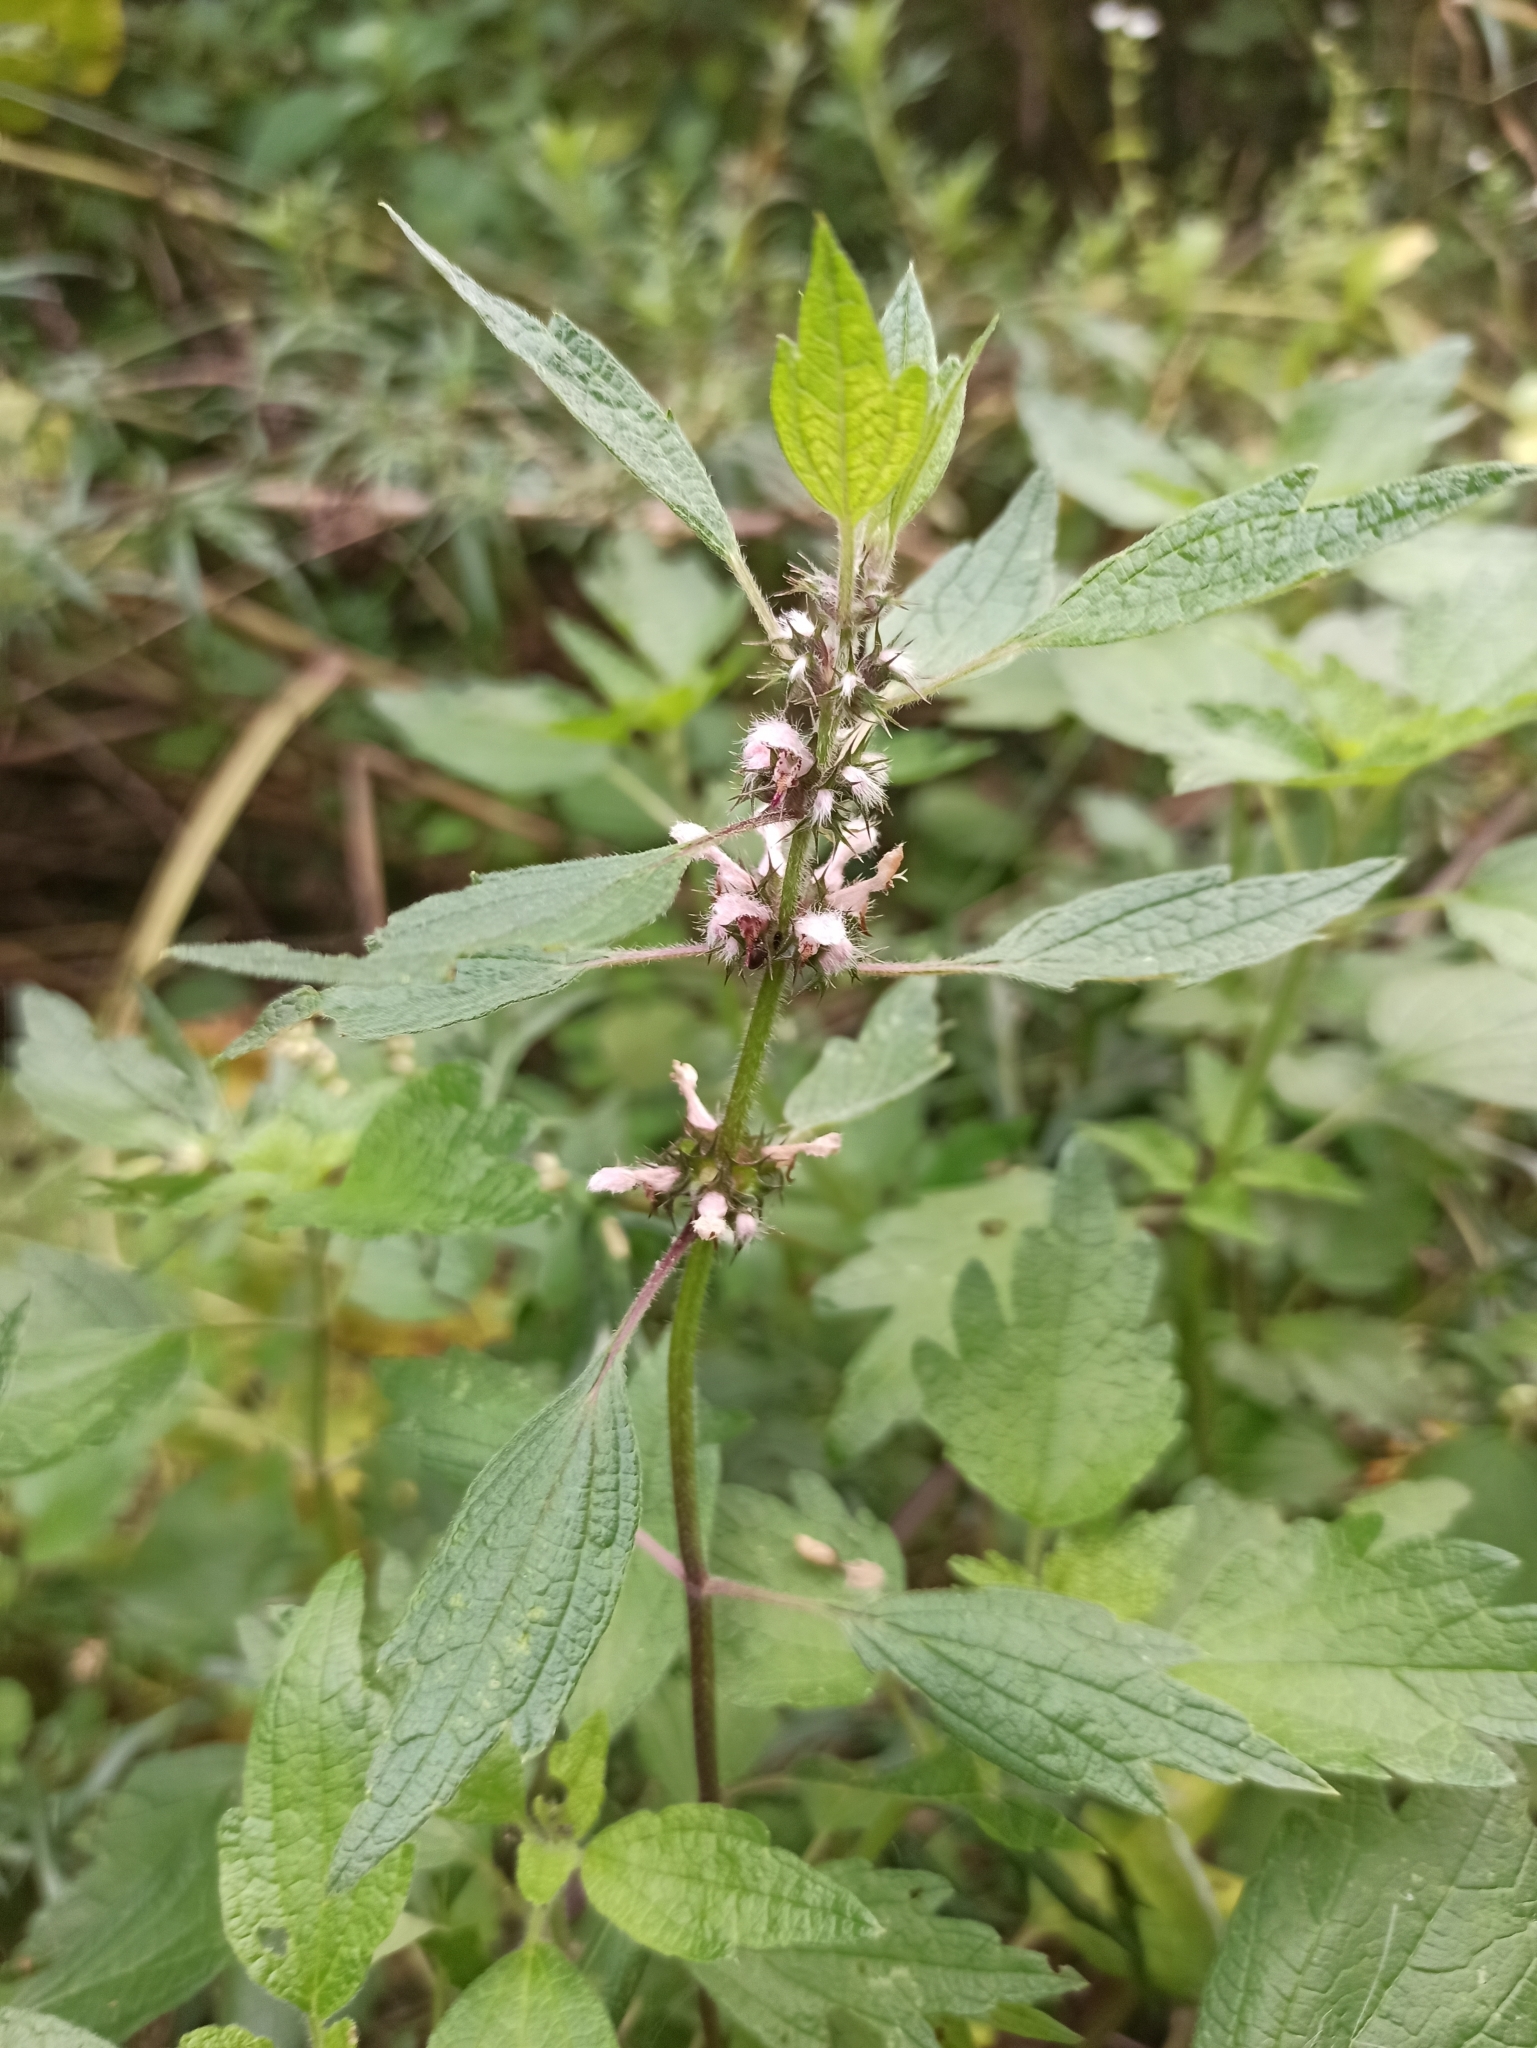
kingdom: Plantae
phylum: Tracheophyta
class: Magnoliopsida
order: Lamiales
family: Lamiaceae
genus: Leonurus
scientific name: Leonurus quinquelobatus
